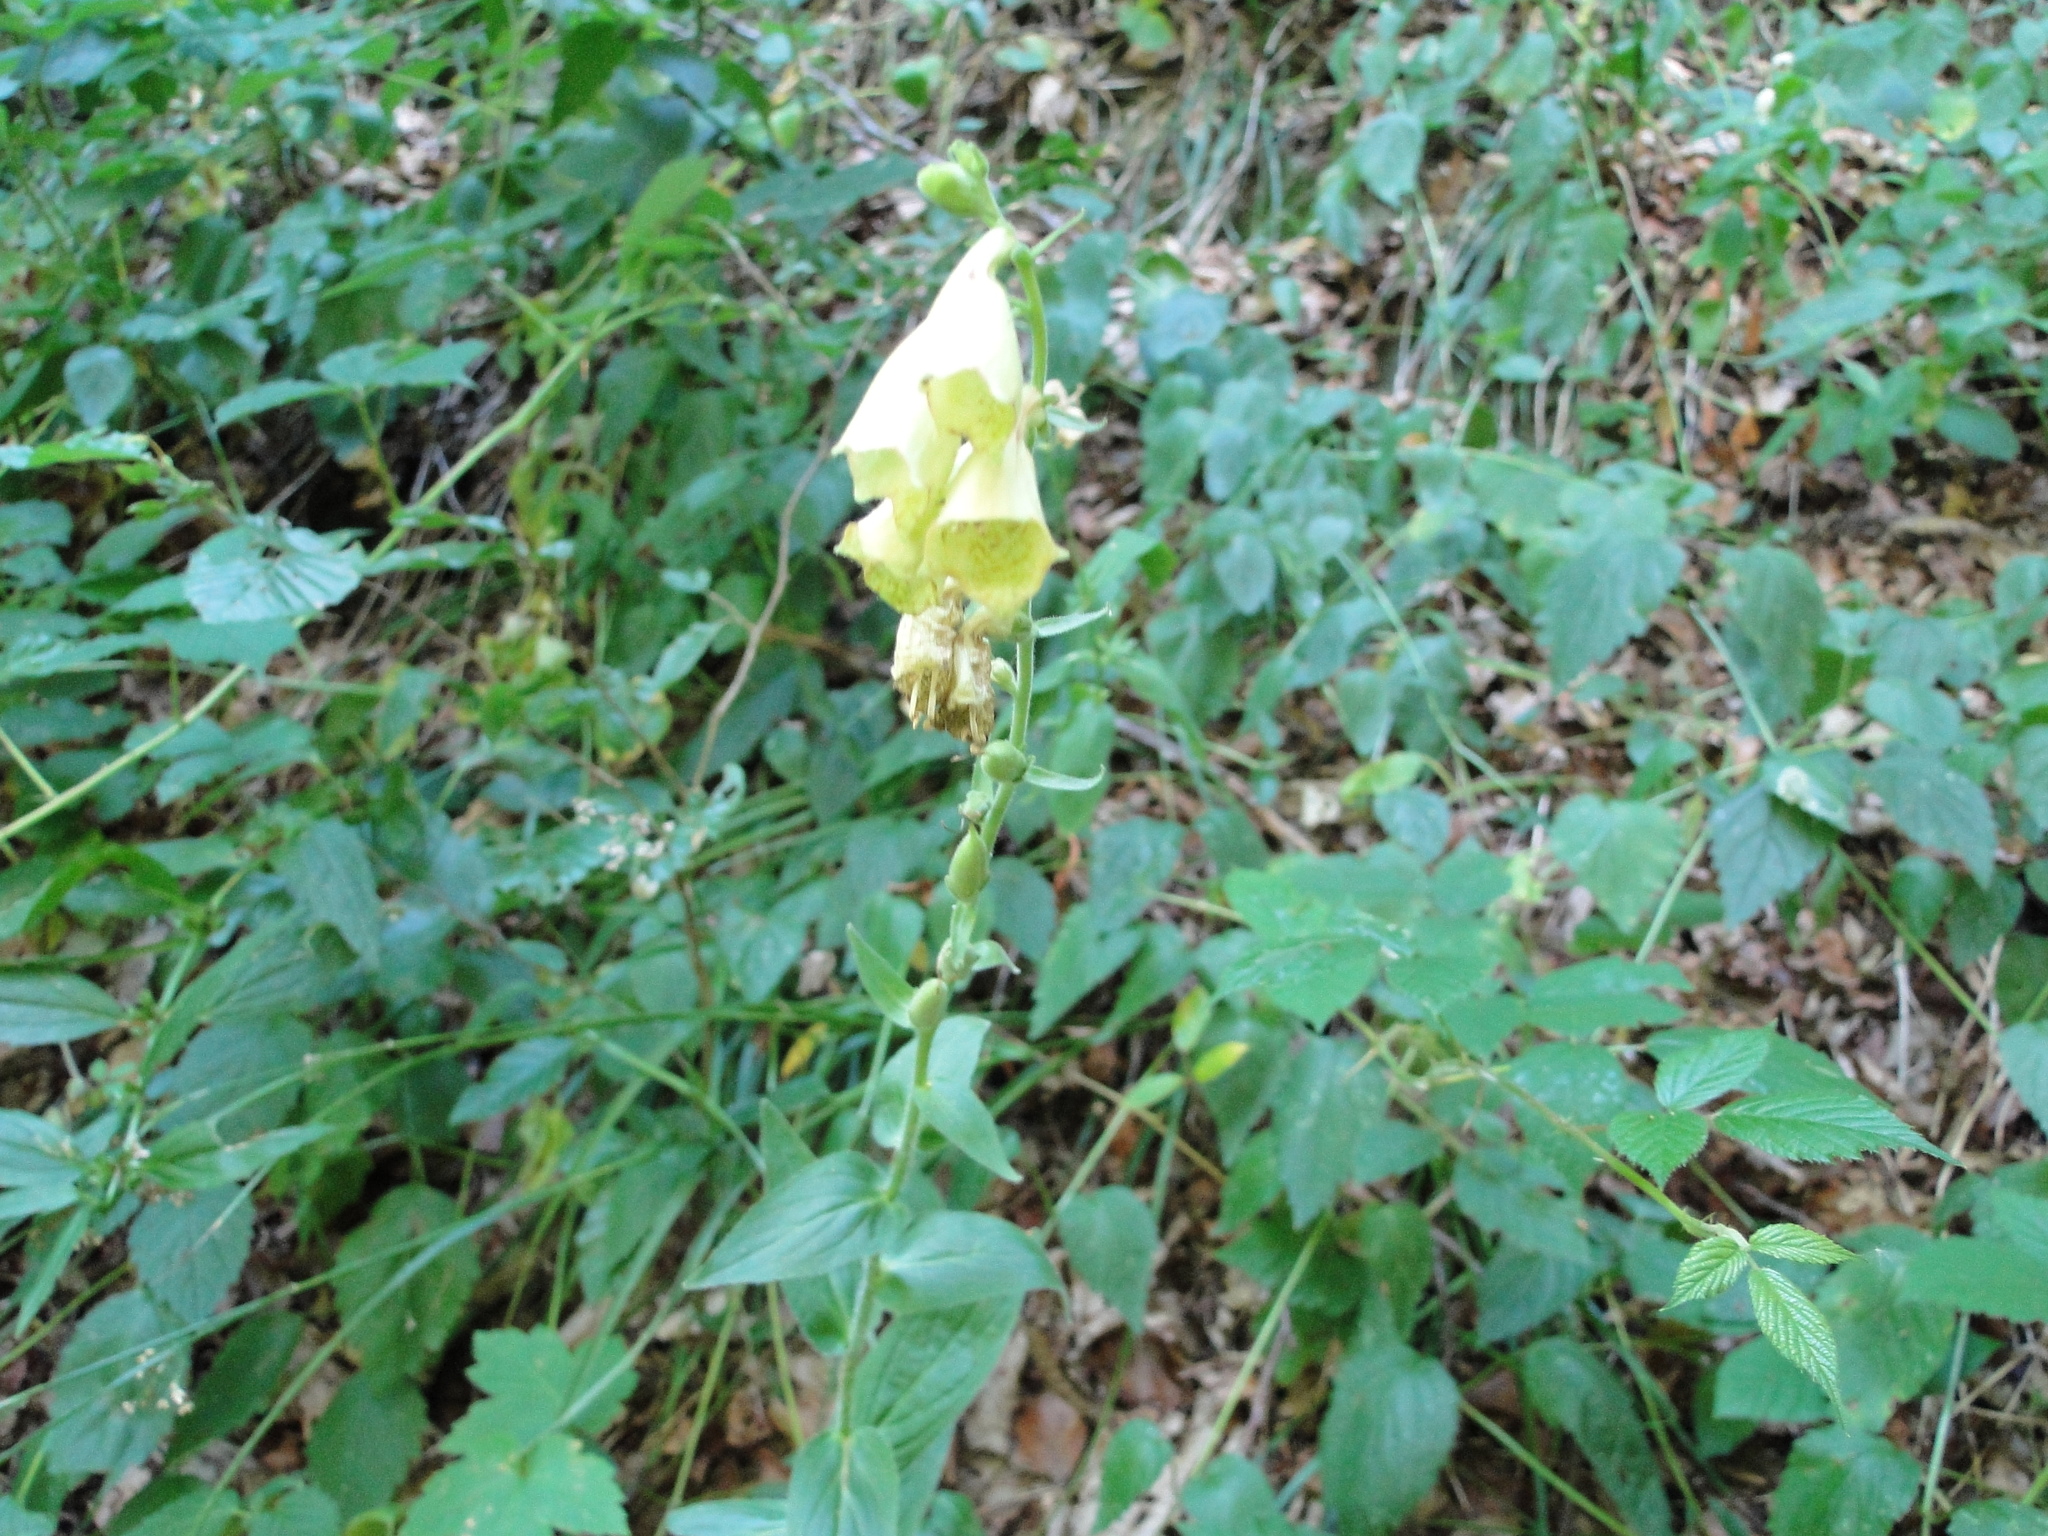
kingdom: Plantae
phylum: Tracheophyta
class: Magnoliopsida
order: Lamiales
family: Plantaginaceae
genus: Digitalis
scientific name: Digitalis grandiflora
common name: Yellow foxglove
